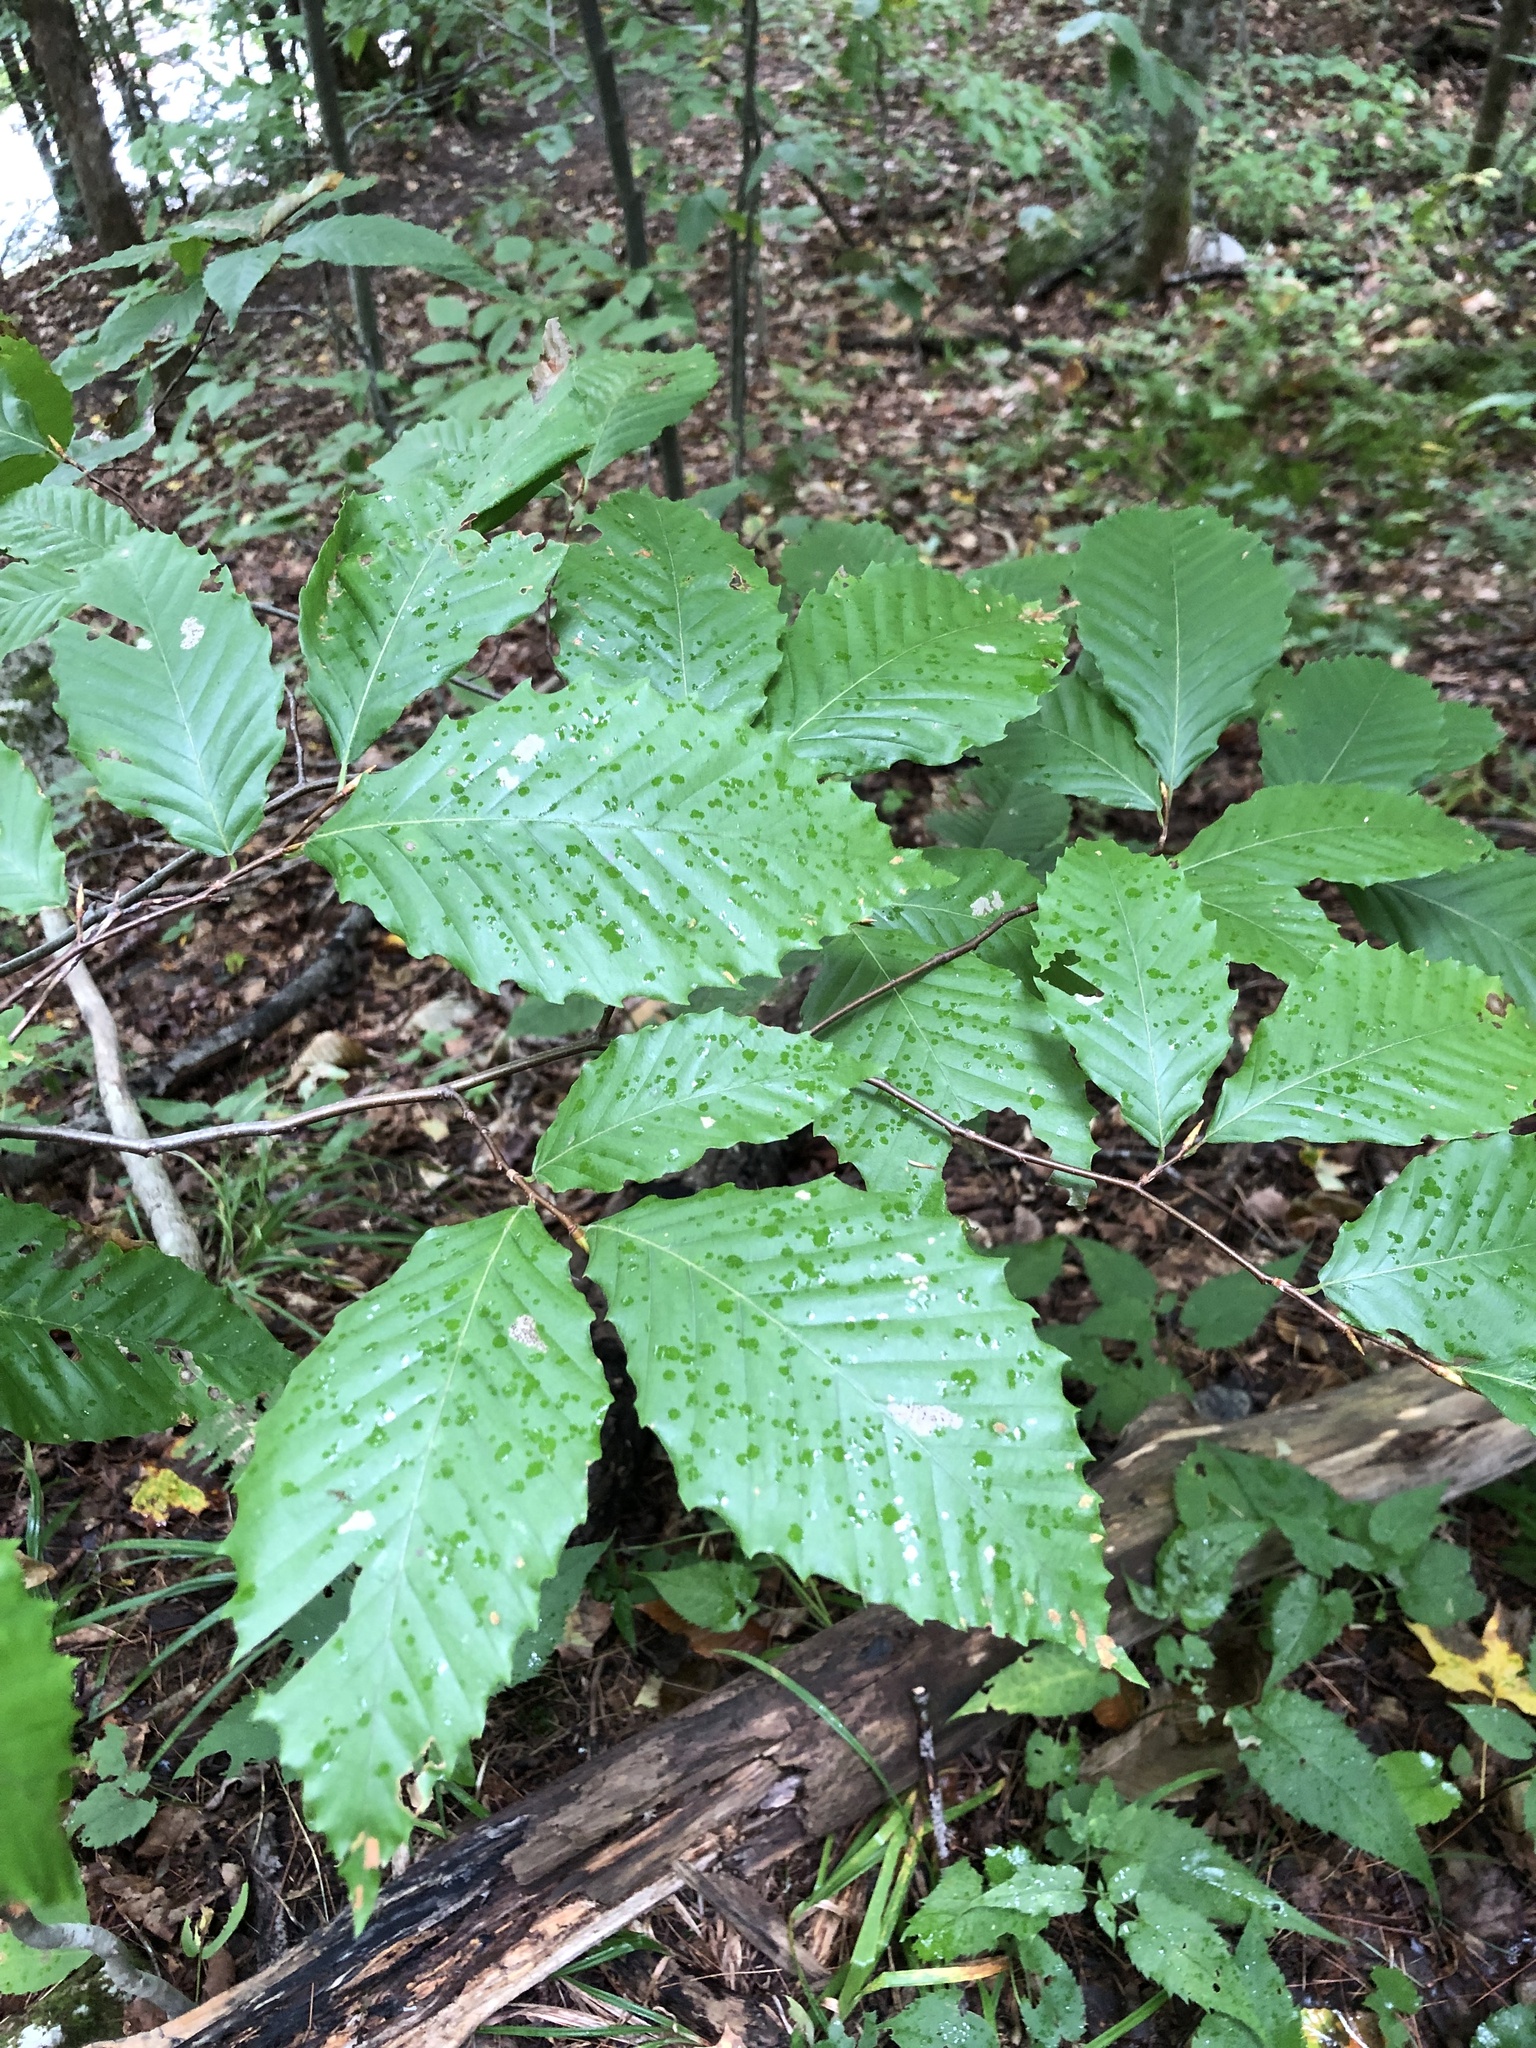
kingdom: Plantae
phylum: Tracheophyta
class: Magnoliopsida
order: Fagales
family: Fagaceae
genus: Fagus
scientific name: Fagus grandifolia
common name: American beech
